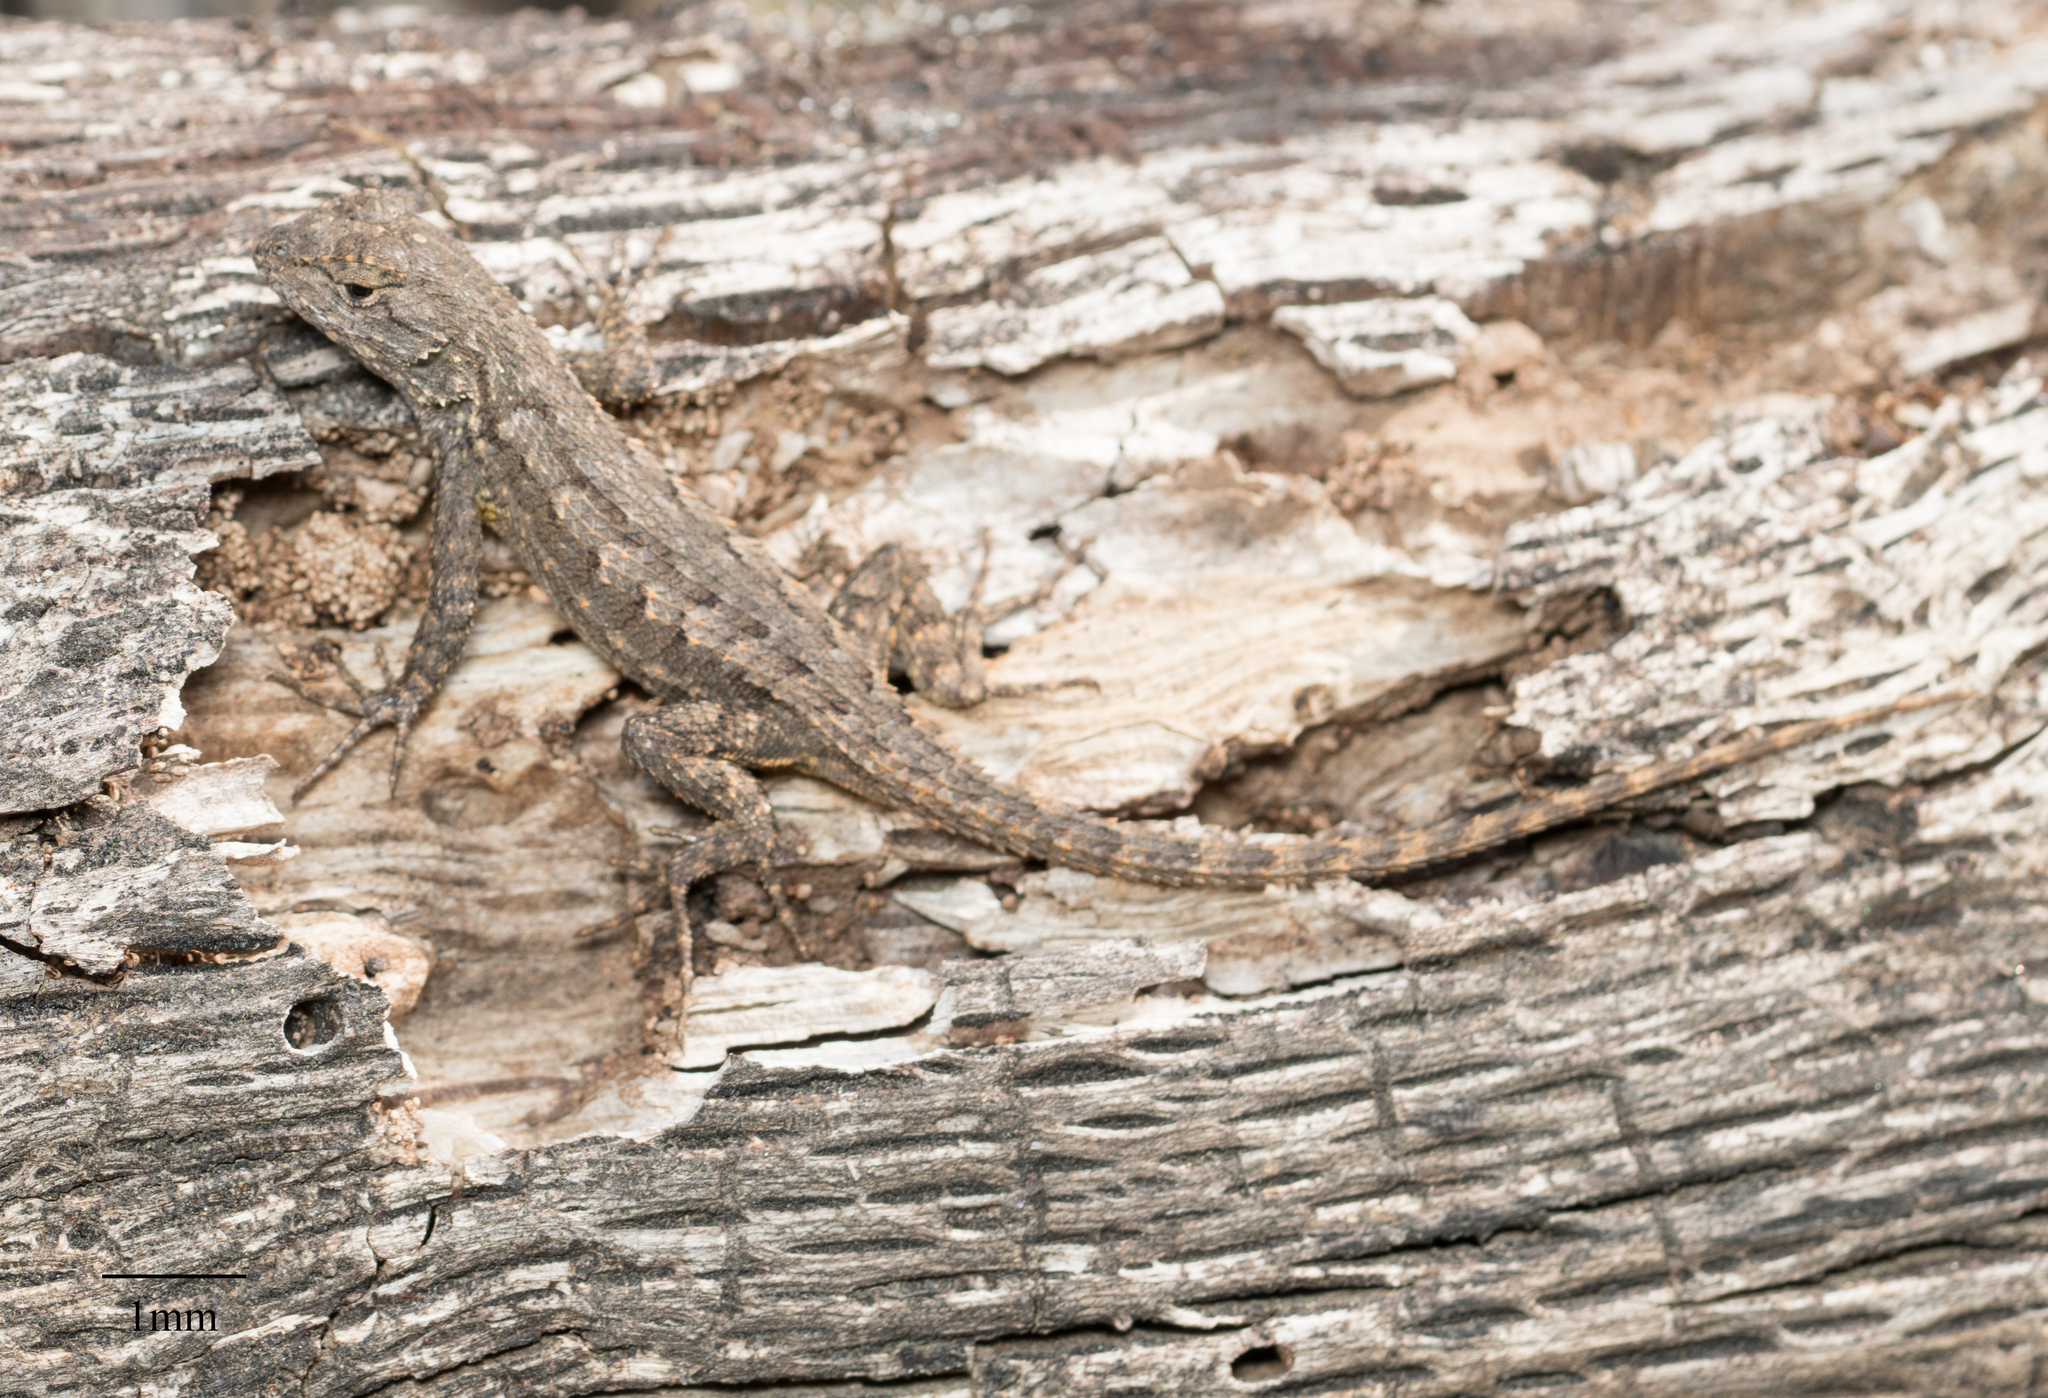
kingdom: Animalia
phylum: Chordata
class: Squamata
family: Phrynosomatidae
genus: Sceloporus
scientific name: Sceloporus occidentalis
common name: Western fence lizard
